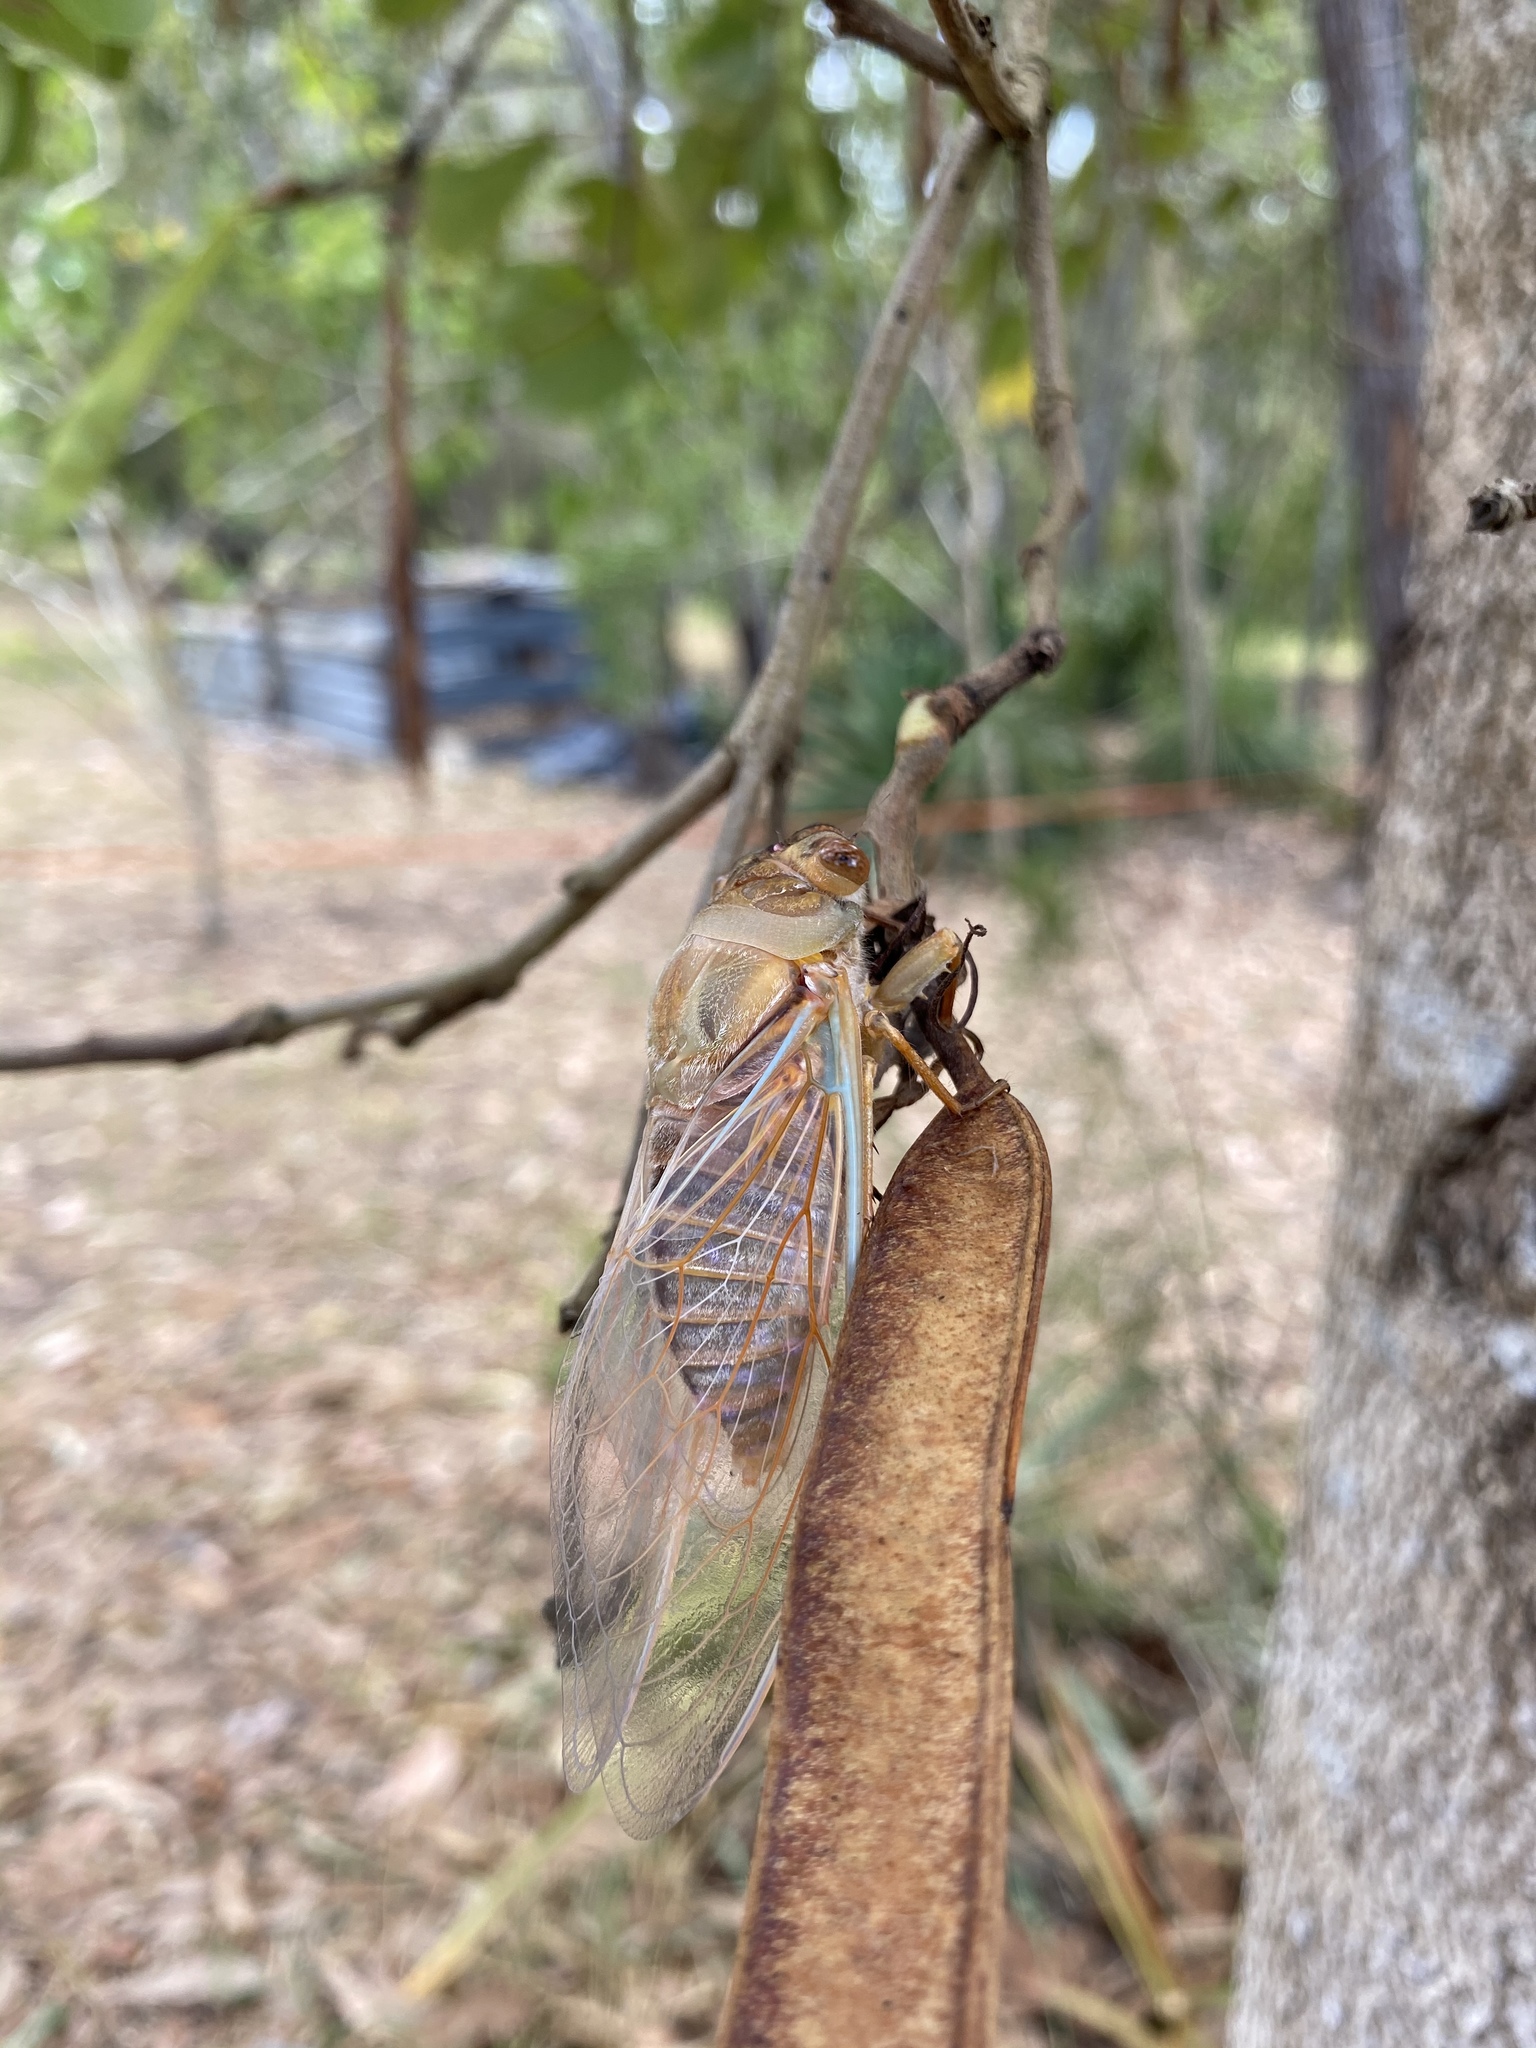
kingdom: Animalia
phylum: Arthropoda
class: Insecta
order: Hemiptera
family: Cicadidae
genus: Macrotristria
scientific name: Macrotristria
